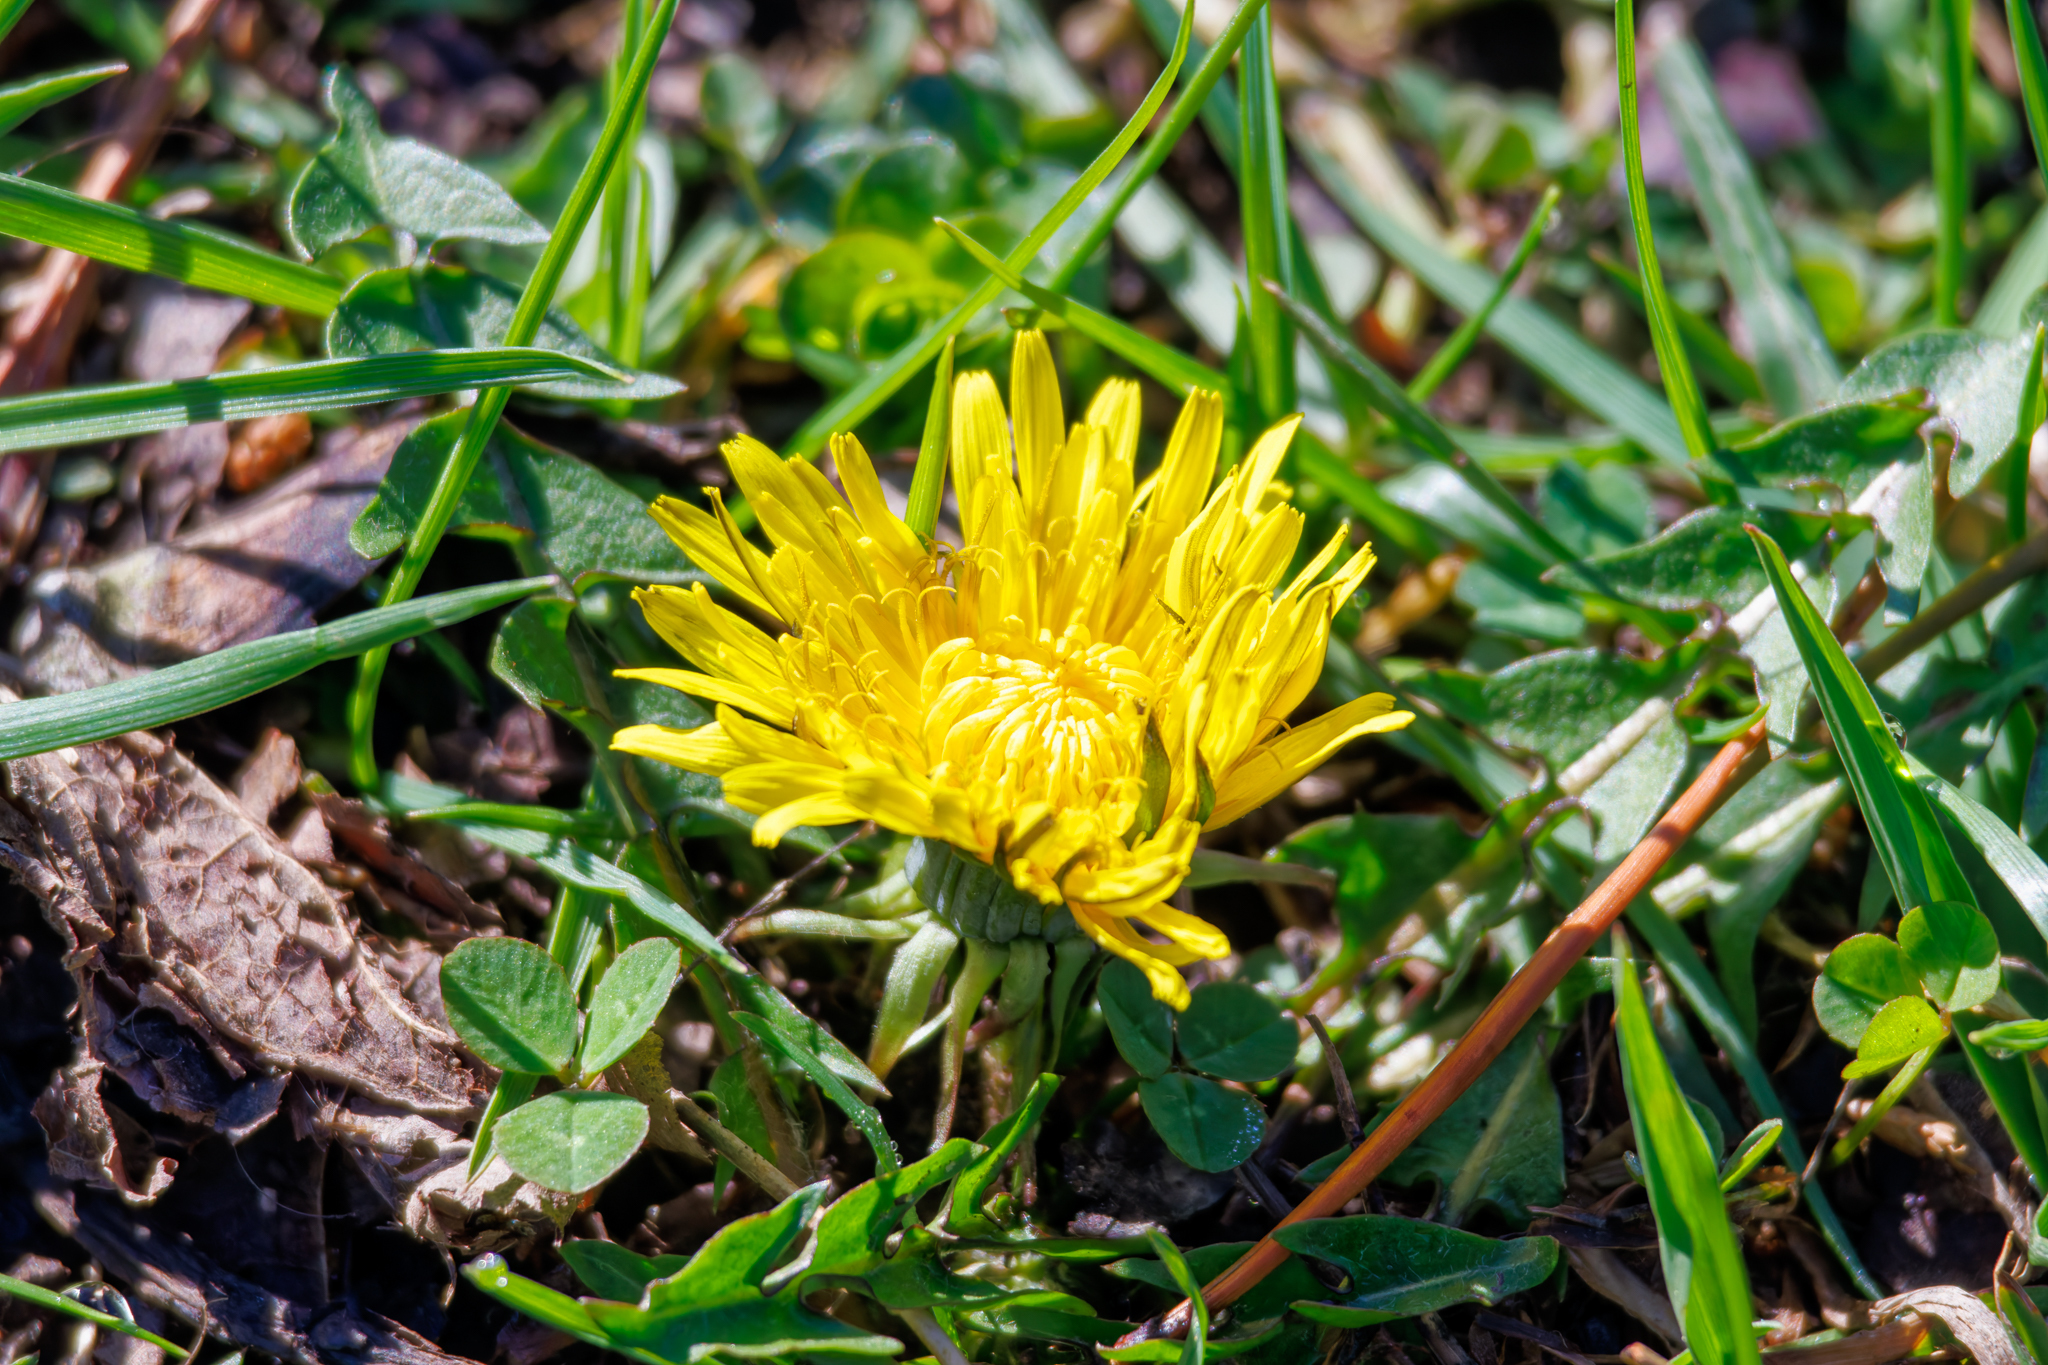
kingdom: Plantae
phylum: Tracheophyta
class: Magnoliopsida
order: Asterales
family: Asteraceae
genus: Taraxacum
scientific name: Taraxacum officinale
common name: Common dandelion
